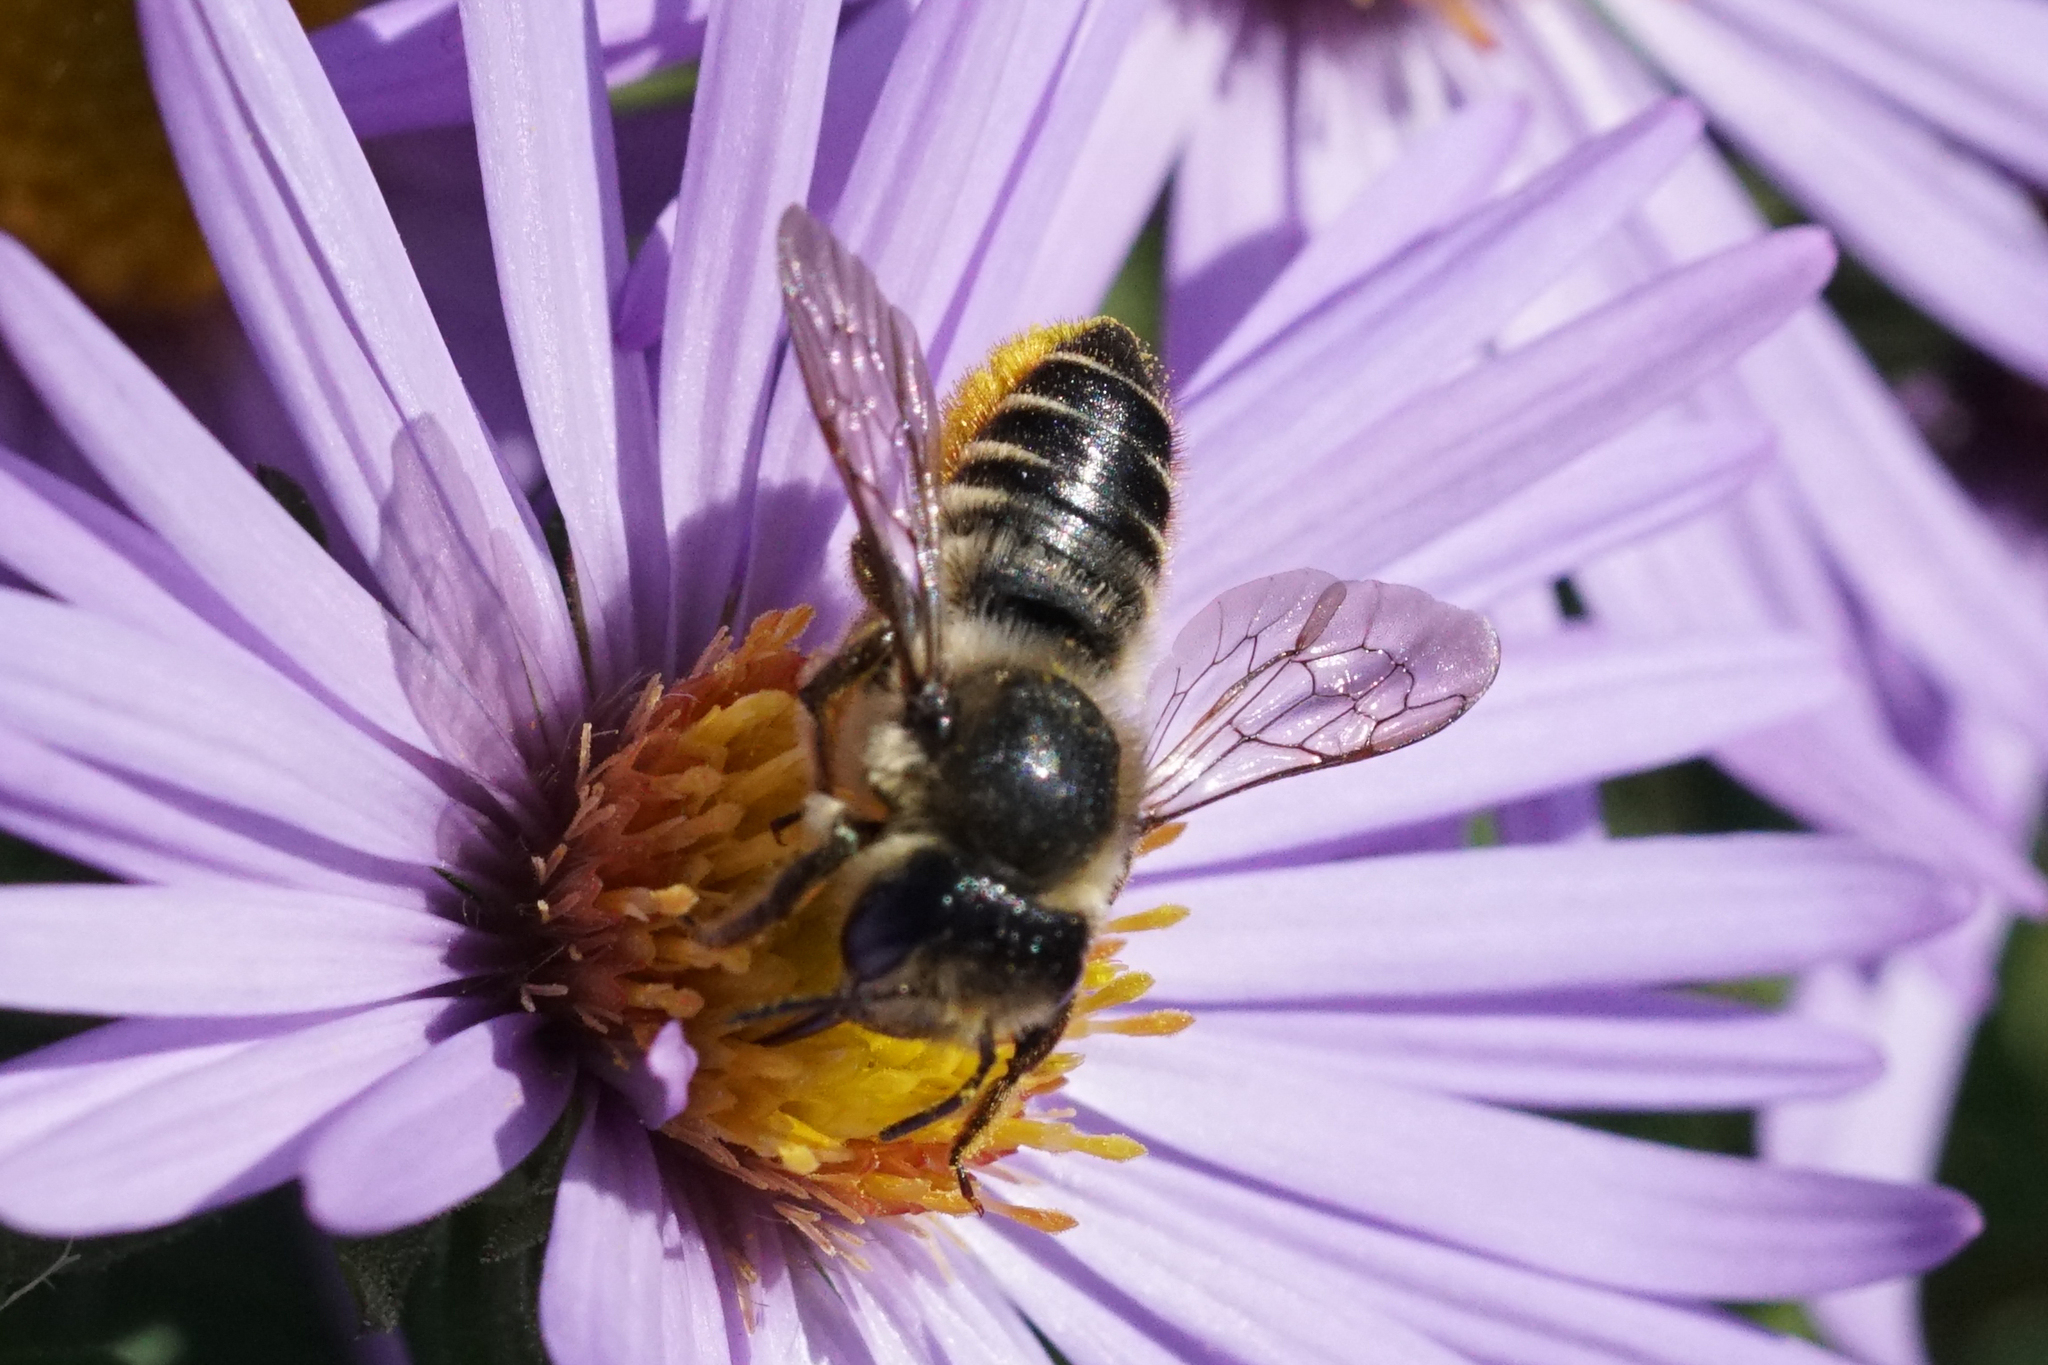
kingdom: Animalia
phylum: Arthropoda
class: Insecta
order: Hymenoptera
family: Megachilidae
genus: Megachile
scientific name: Megachile
